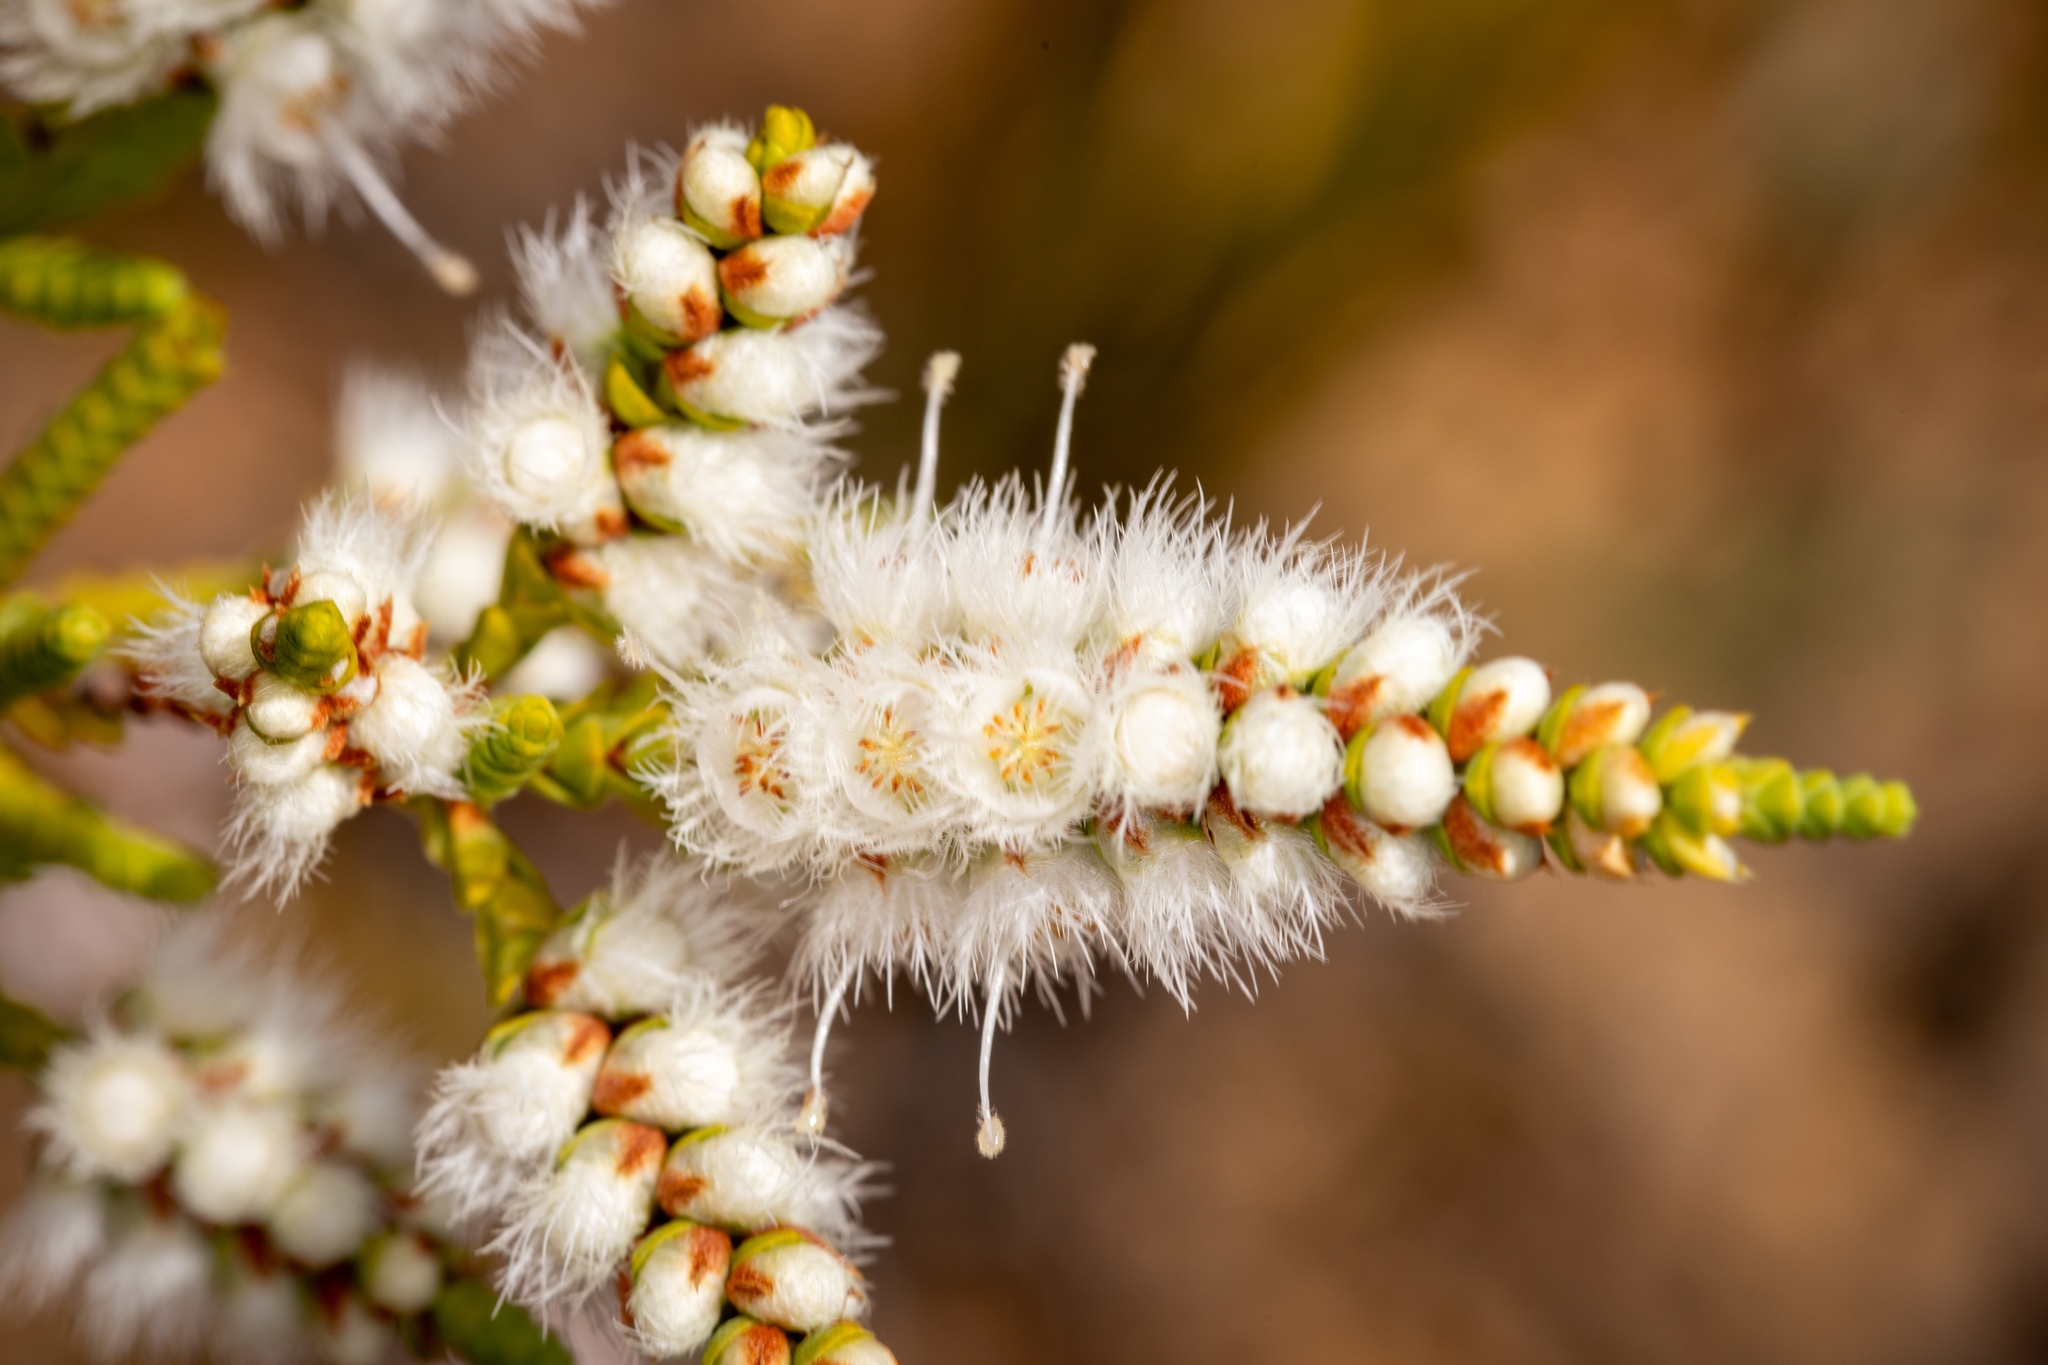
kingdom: Plantae
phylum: Tracheophyta
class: Magnoliopsida
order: Myrtales
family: Myrtaceae
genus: Verticordia
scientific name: Verticordia spicata
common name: Spike feather-flower
